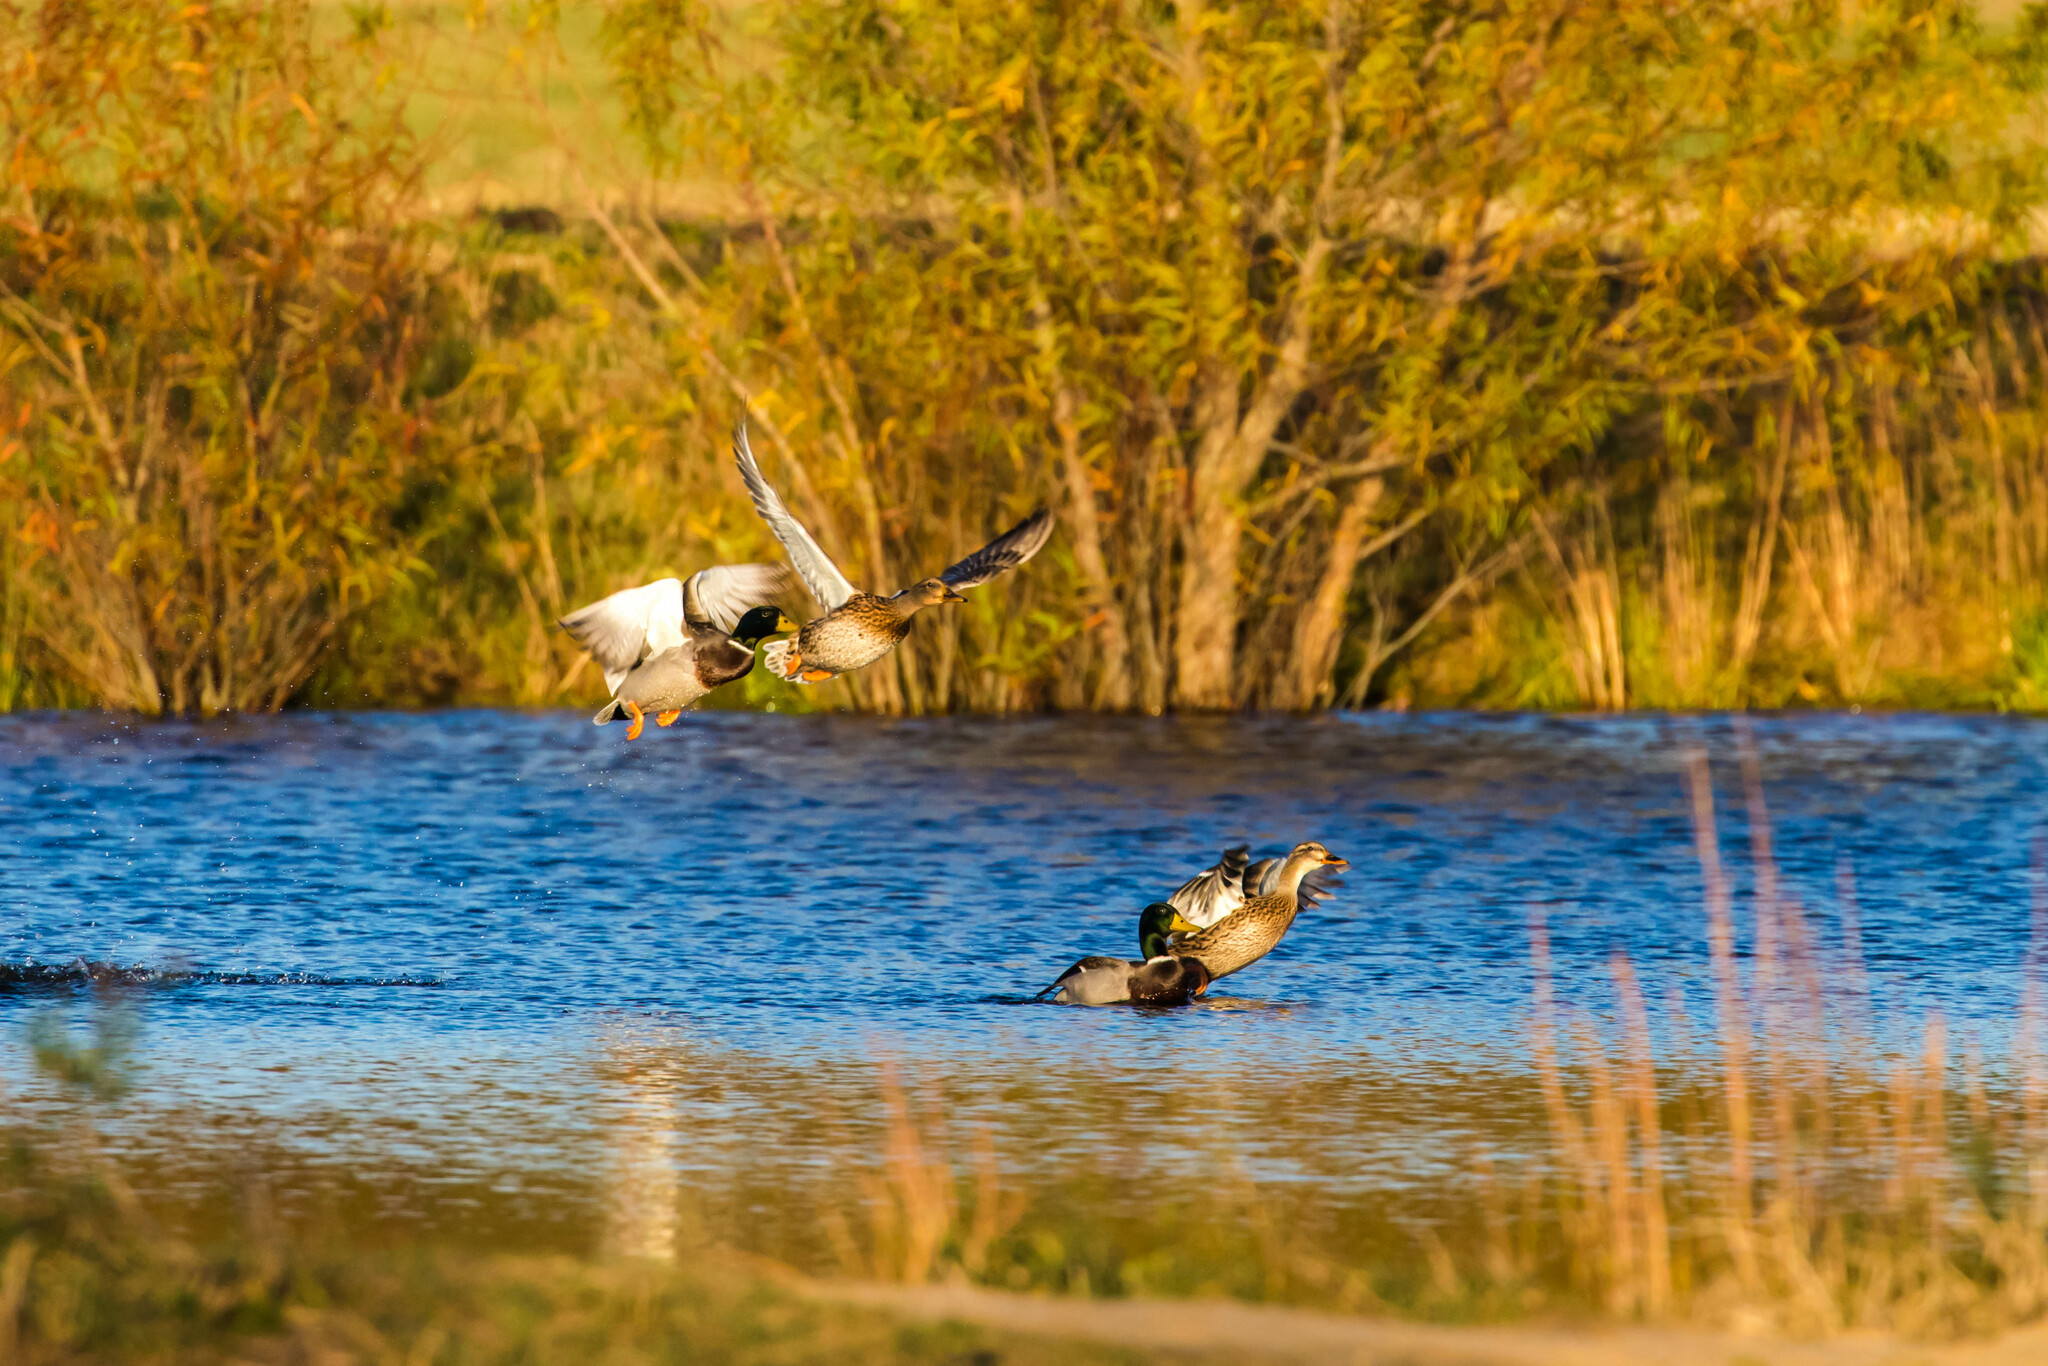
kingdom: Animalia
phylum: Chordata
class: Aves
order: Anseriformes
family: Anatidae
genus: Anas
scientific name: Anas platyrhynchos
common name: Mallard
